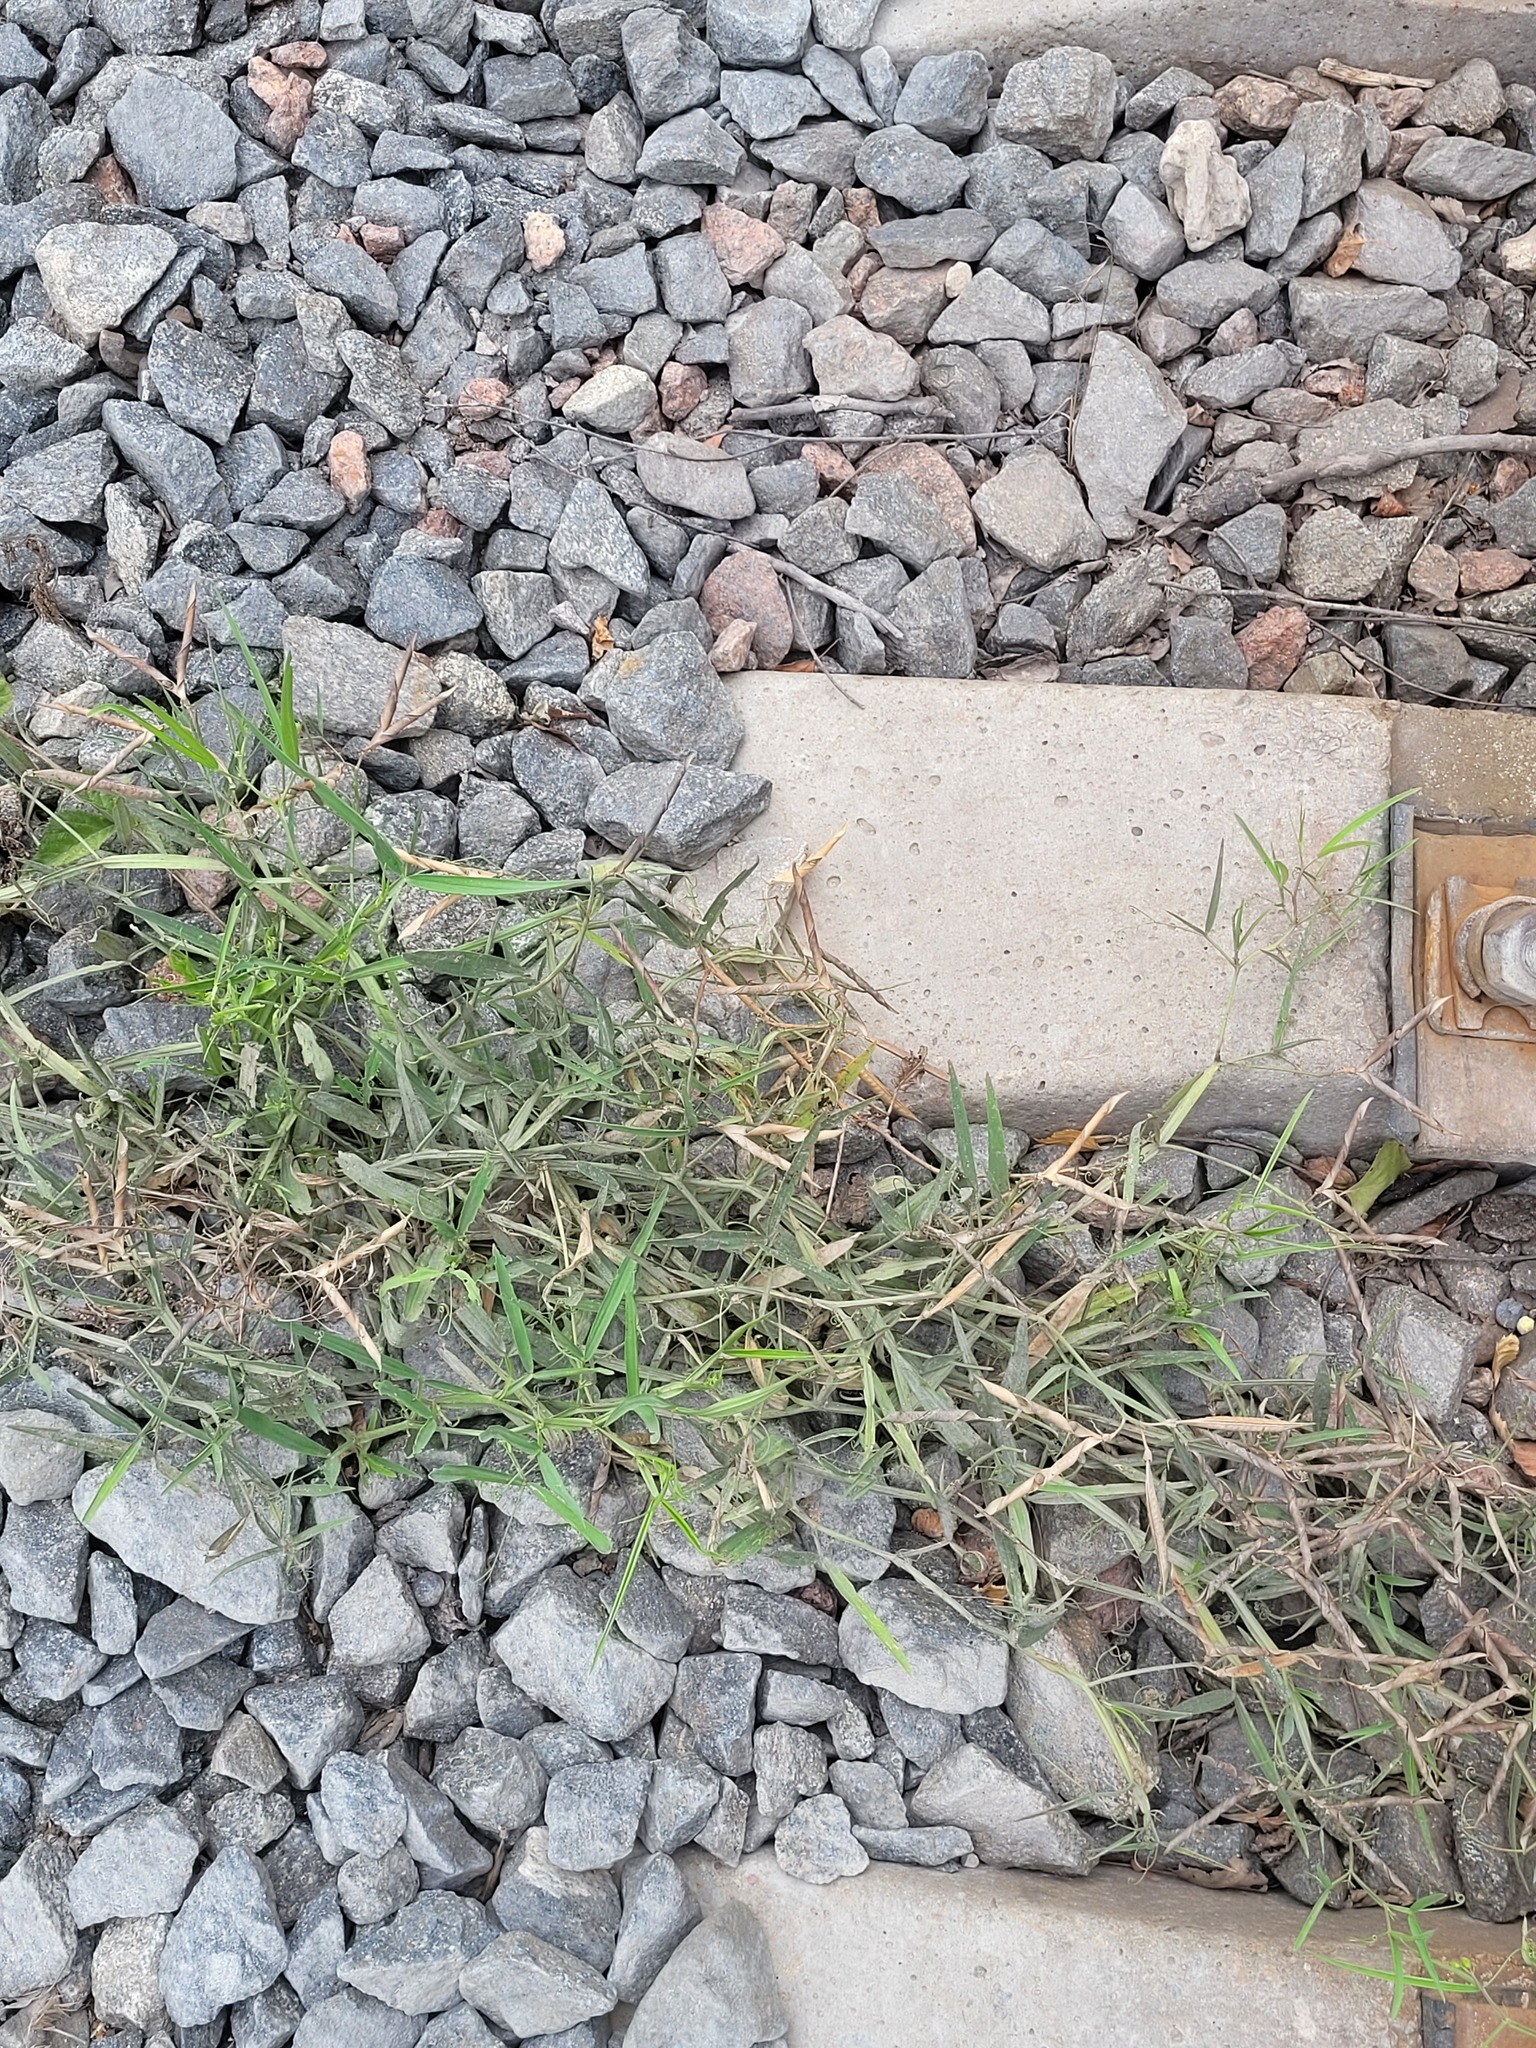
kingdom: Plantae
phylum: Tracheophyta
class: Magnoliopsida
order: Fabales
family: Fabaceae
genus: Lathyrus
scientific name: Lathyrus sylvestris
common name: Flat pea
